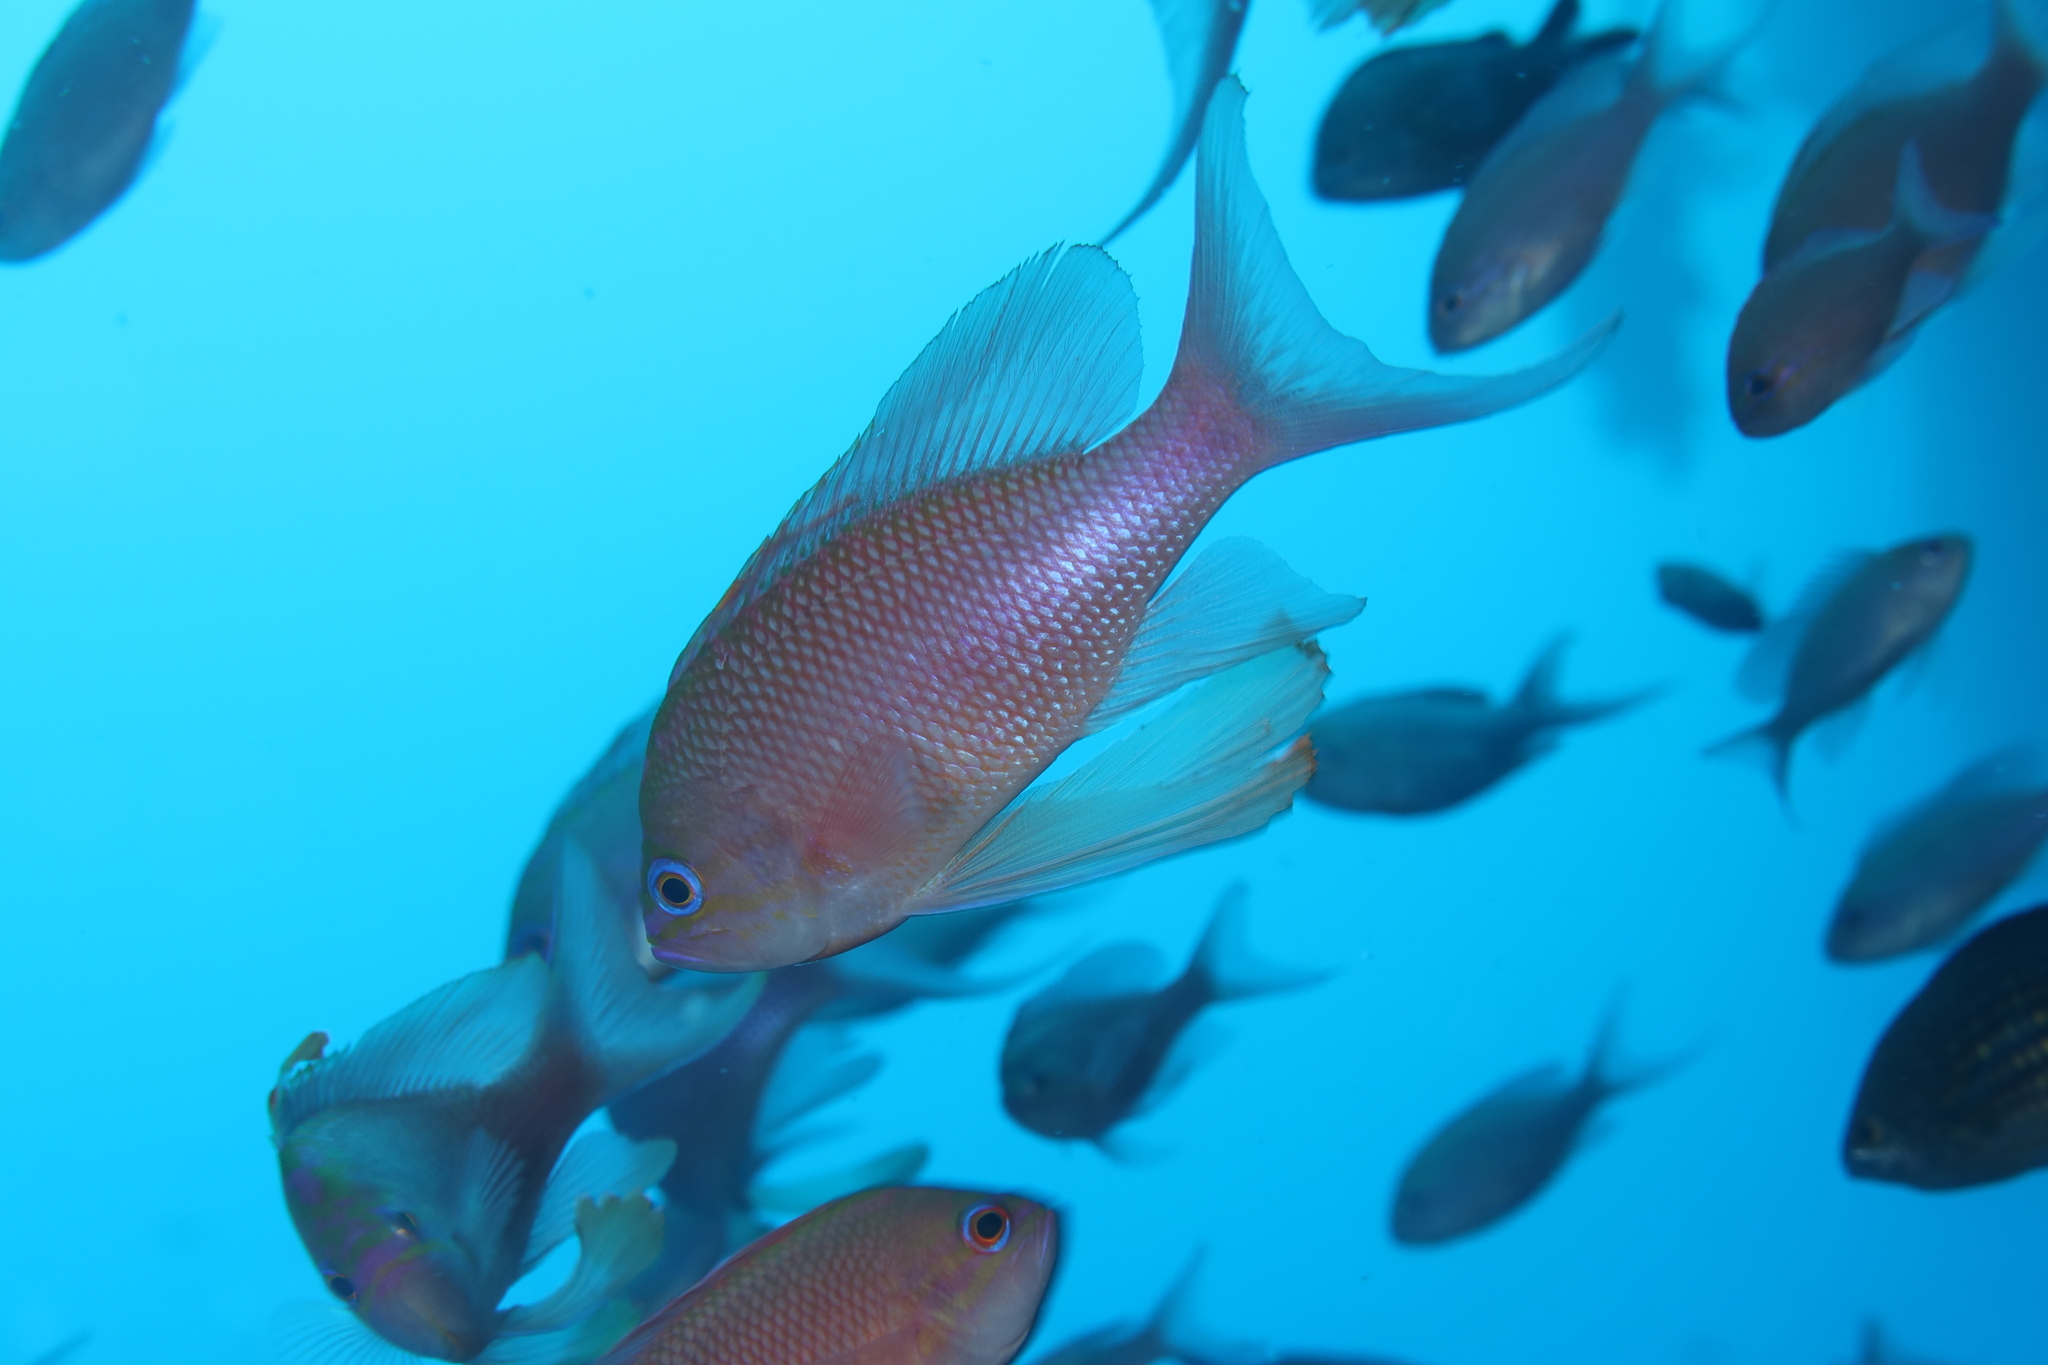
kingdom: Animalia
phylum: Chordata
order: Perciformes
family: Serranidae
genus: Anthias
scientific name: Anthias anthias
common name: Swallowtail seaperch
